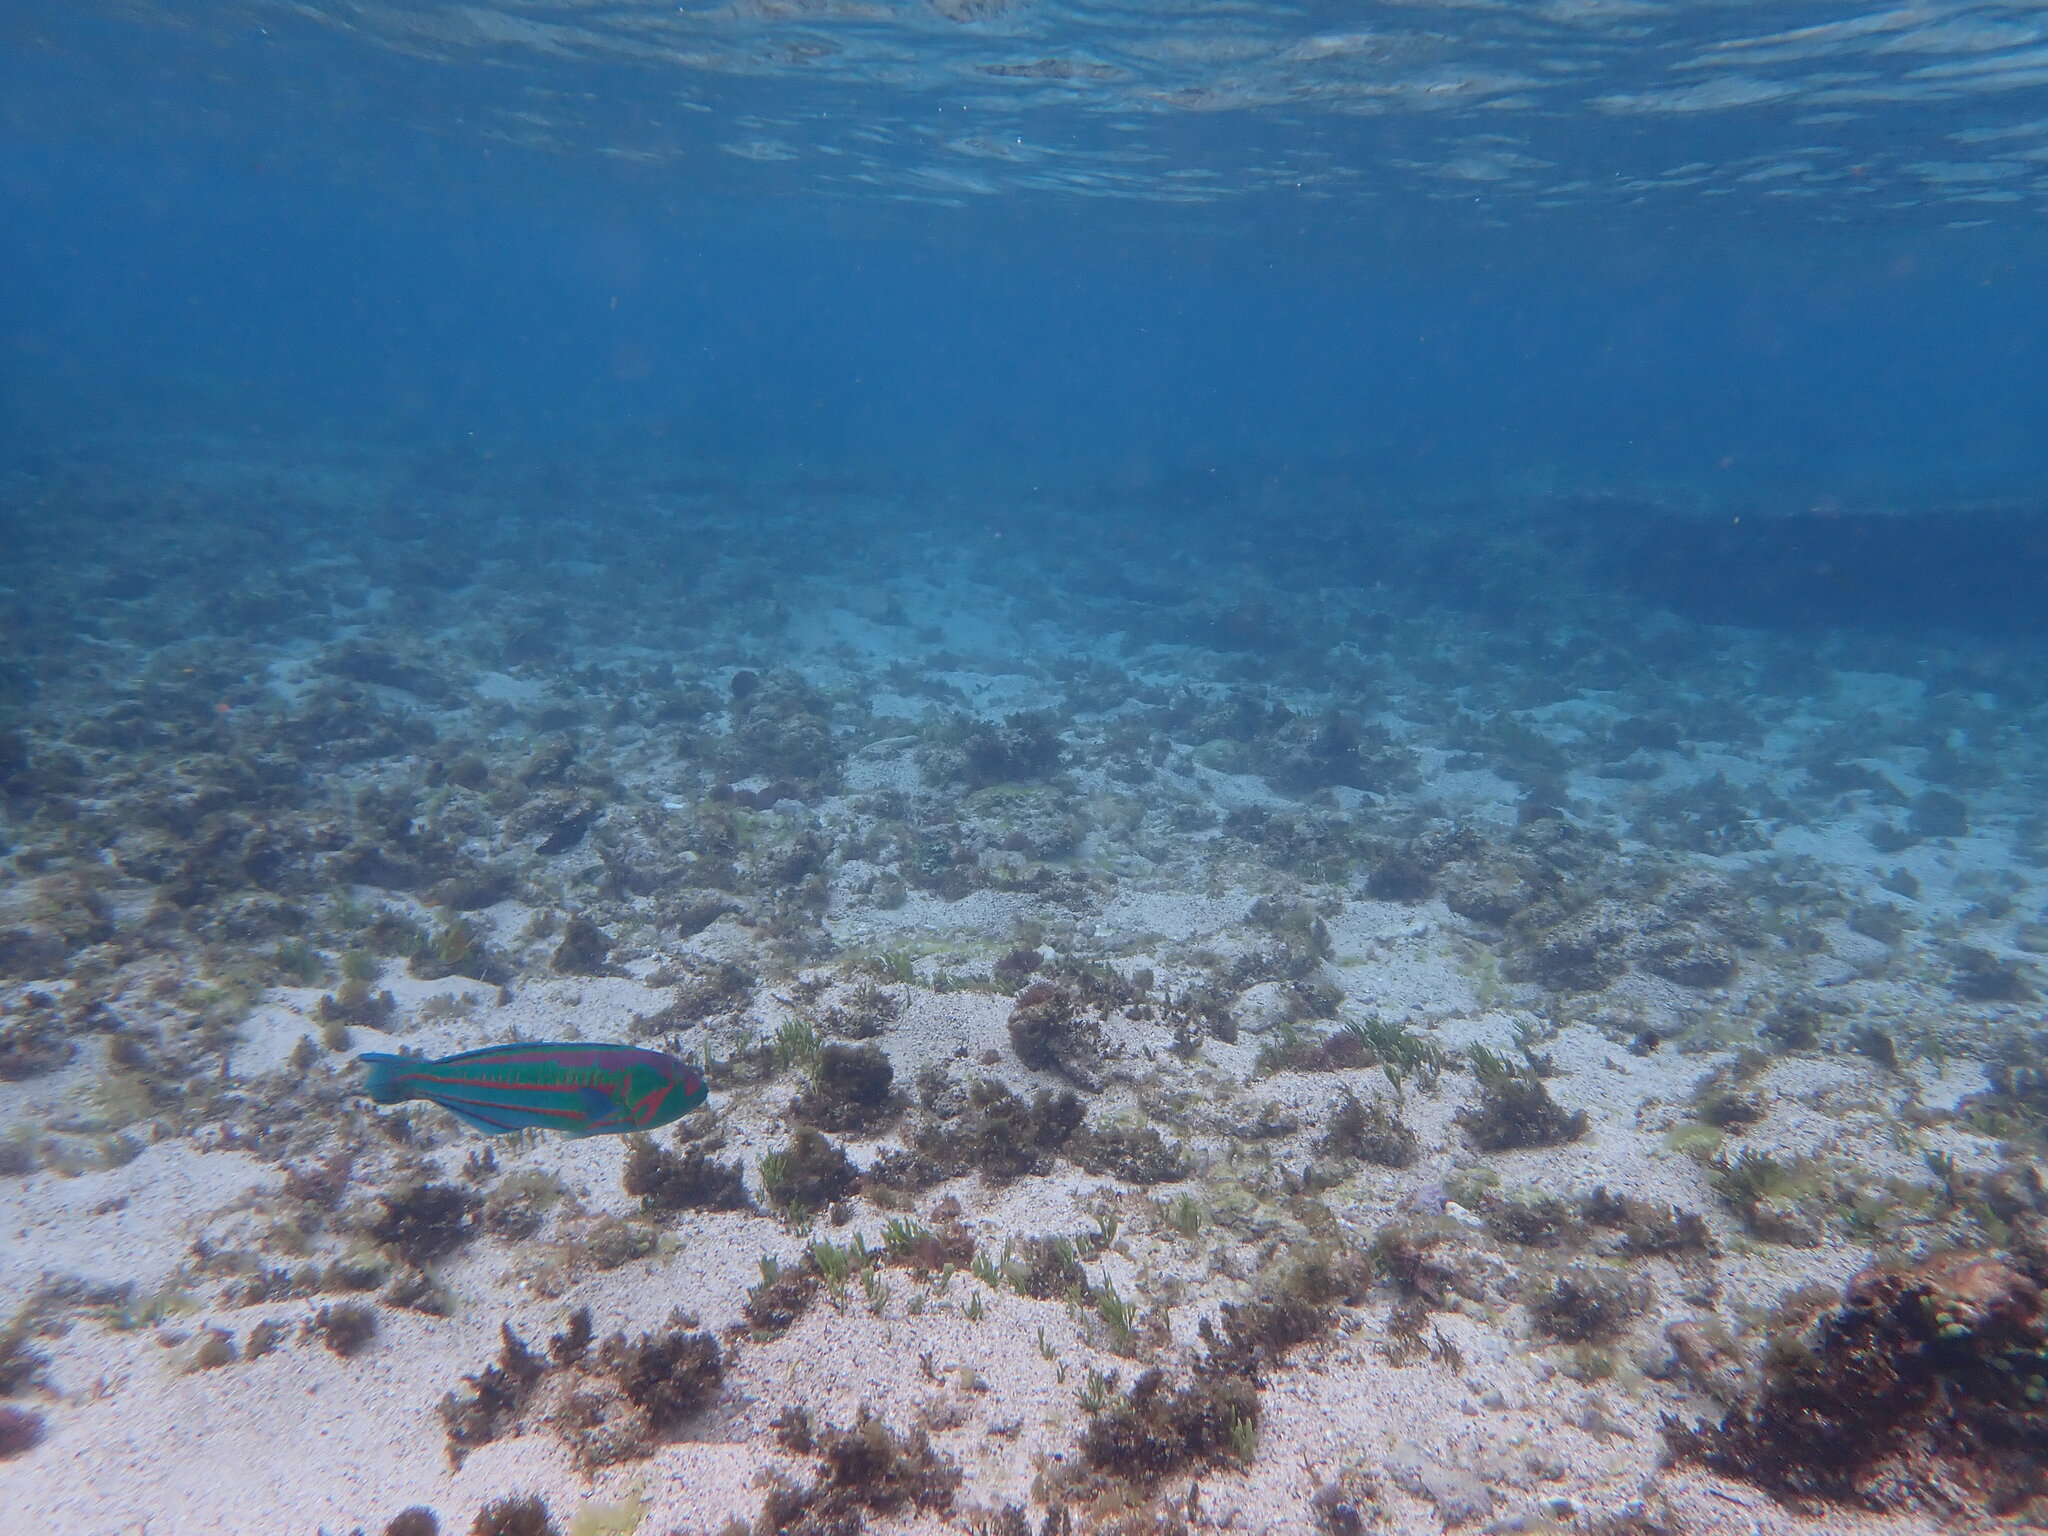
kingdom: Animalia
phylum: Chordata
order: Perciformes
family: Labridae
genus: Thalassoma
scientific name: Thalassoma purpureum
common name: Parrotfish
